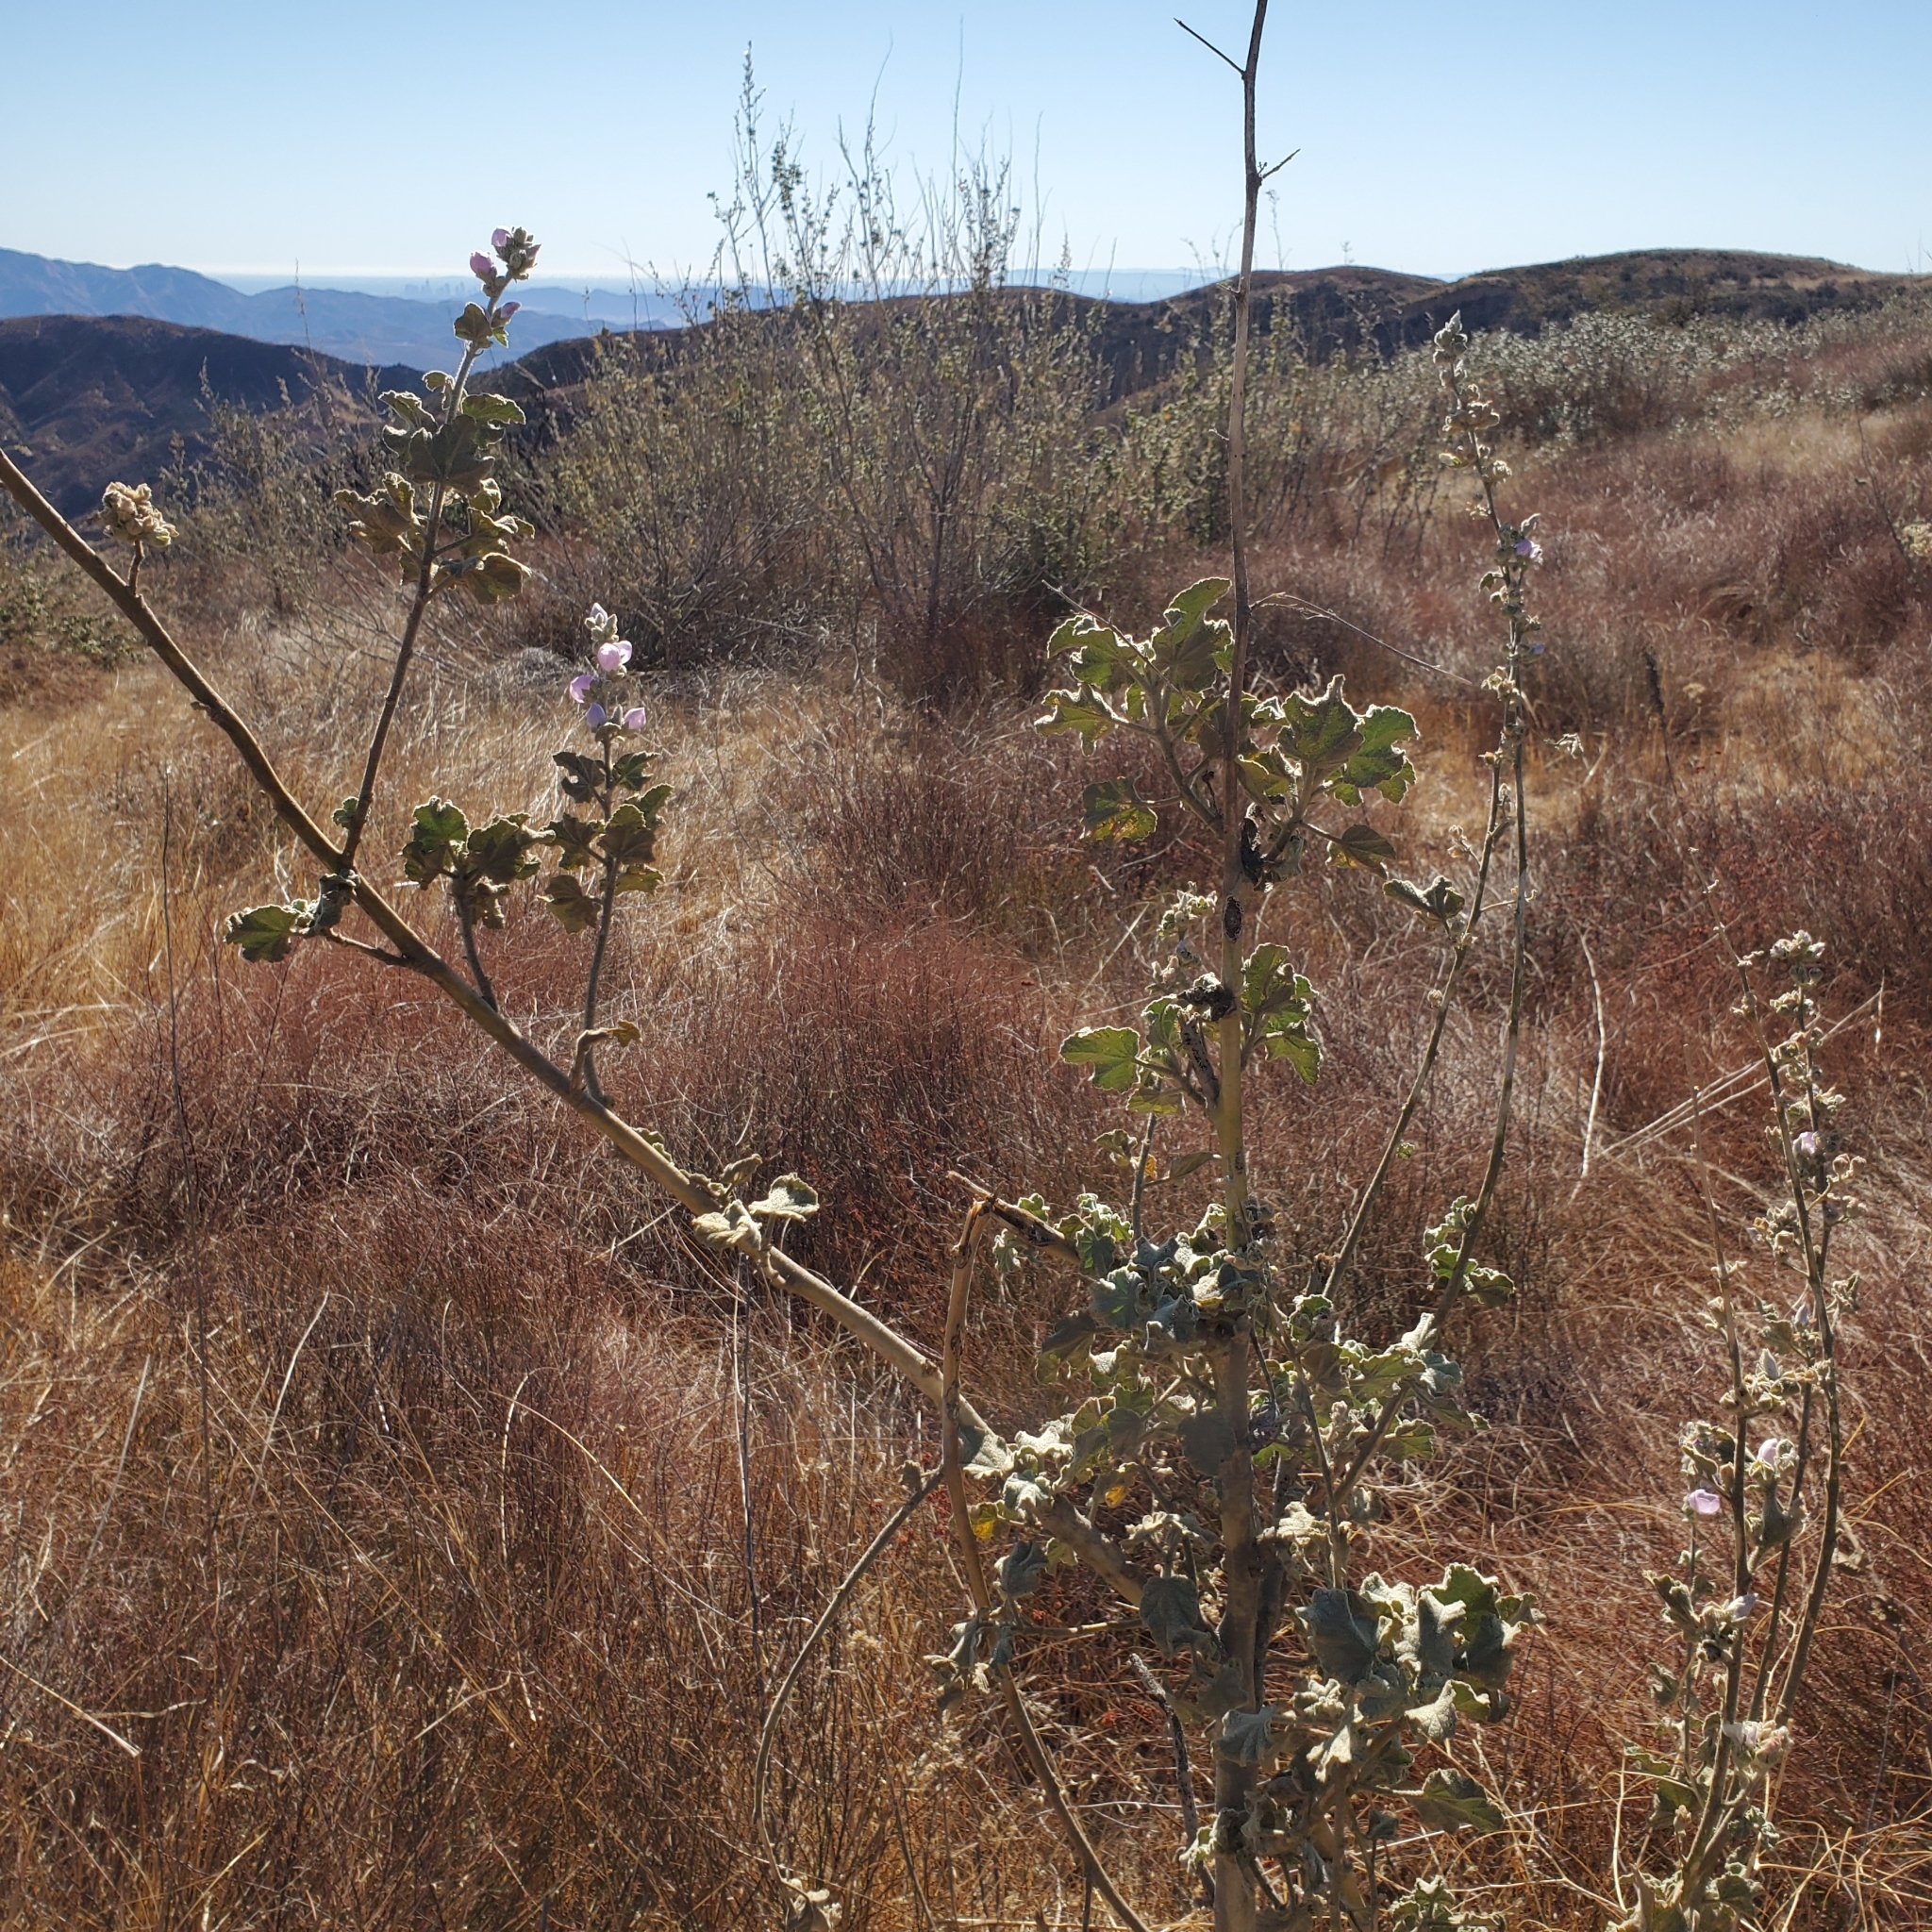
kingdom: Plantae
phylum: Tracheophyta
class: Magnoliopsida
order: Malvales
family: Malvaceae
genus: Malacothamnus
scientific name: Malacothamnus davidsonii
